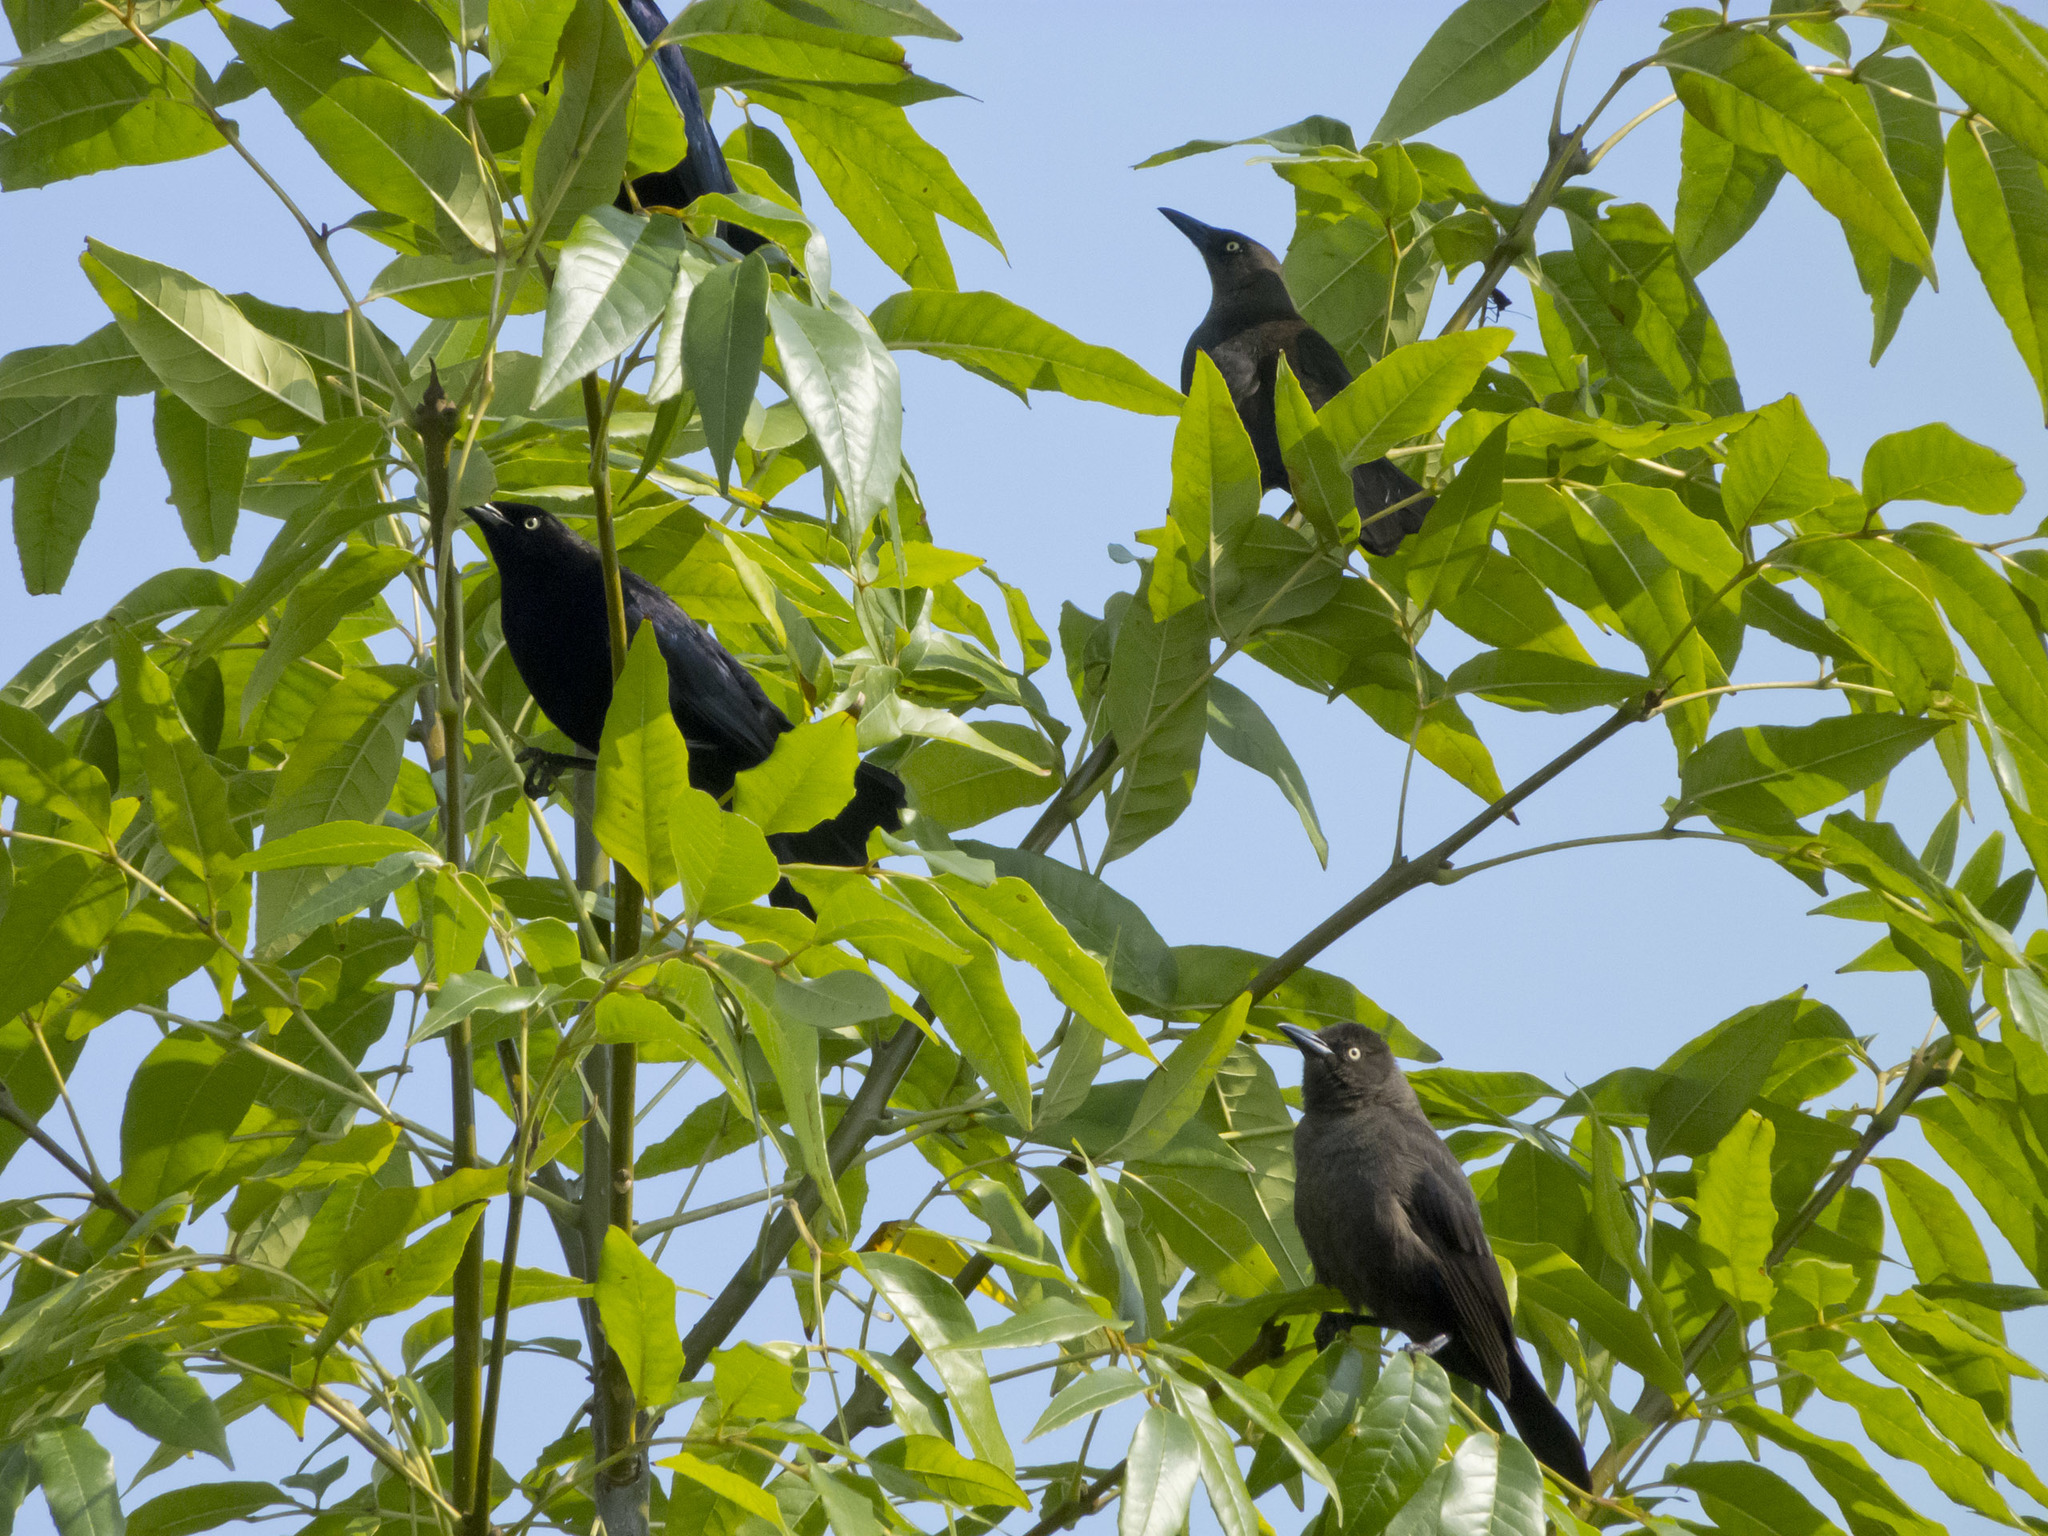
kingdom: Animalia
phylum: Chordata
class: Aves
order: Passeriformes
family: Icteridae
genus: Quiscalus
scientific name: Quiscalus lugubris
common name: Carib grackle
